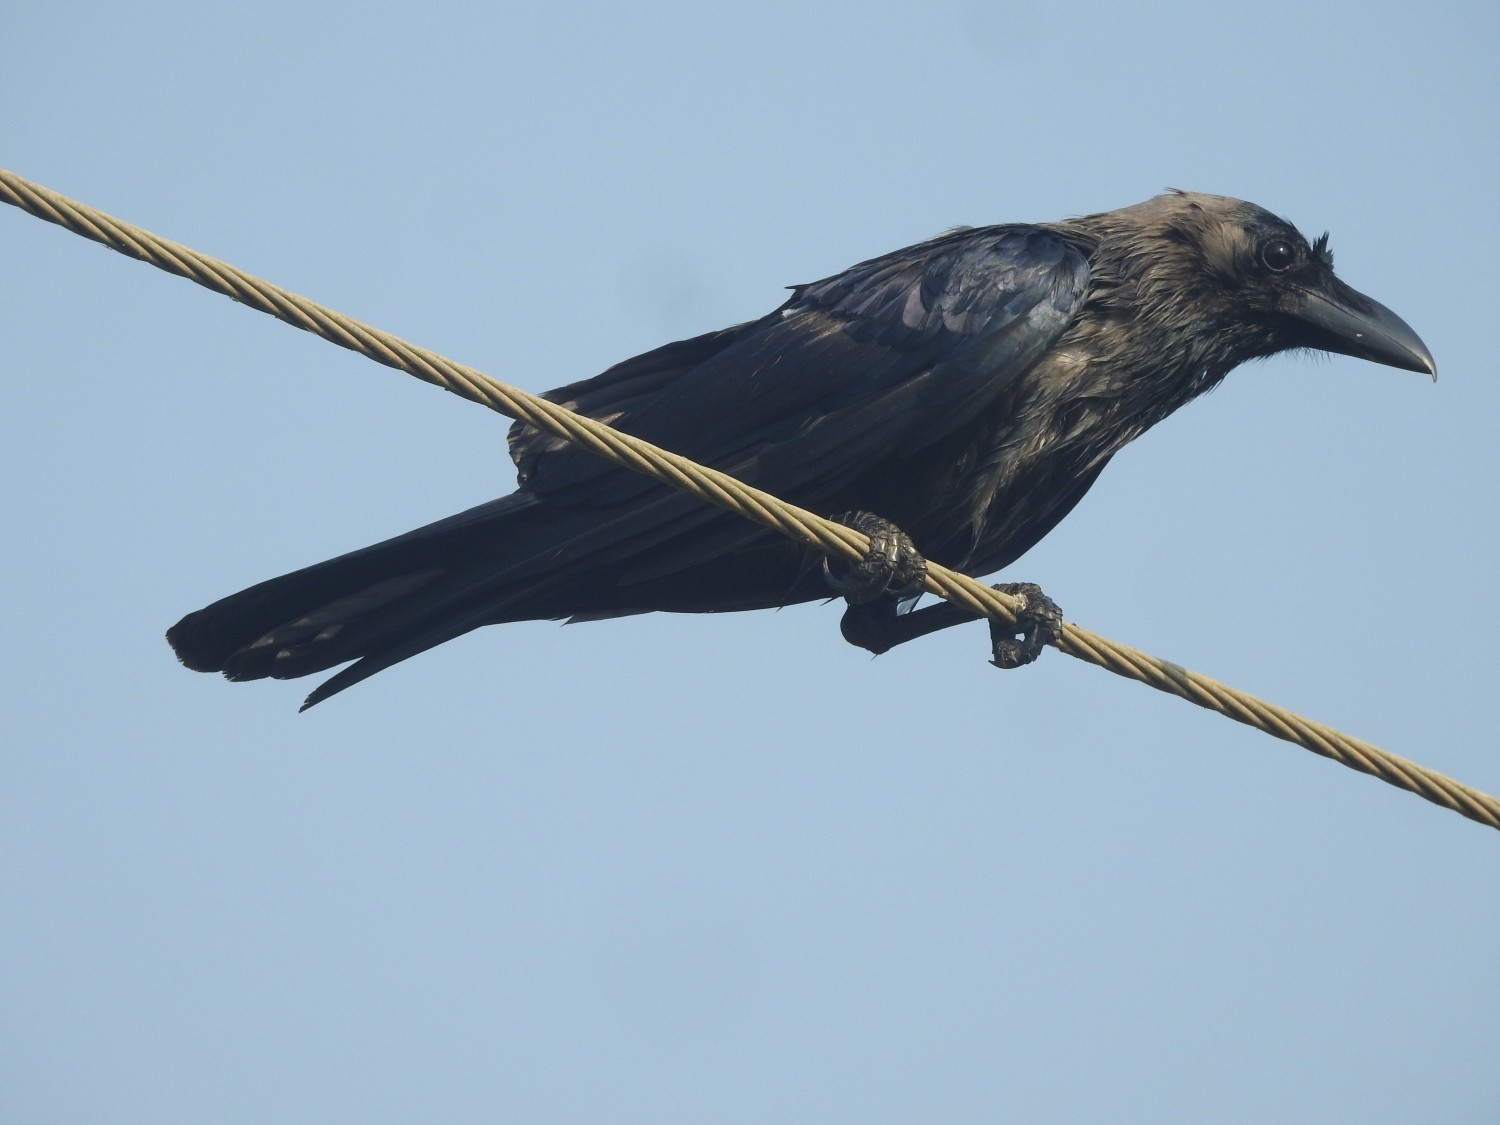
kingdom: Animalia
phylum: Chordata
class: Aves
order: Passeriformes
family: Corvidae
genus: Corvus
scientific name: Corvus splendens
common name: House crow
